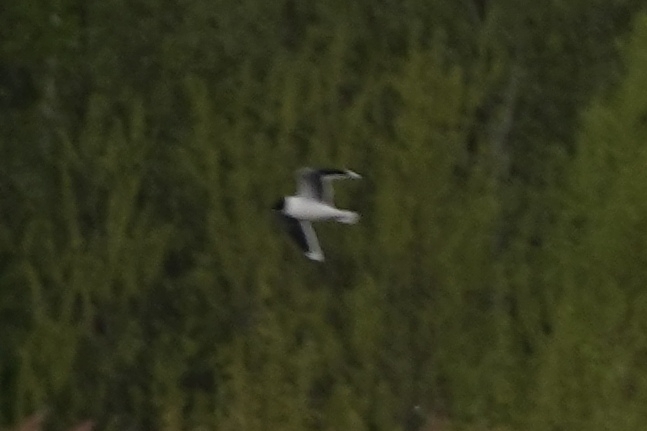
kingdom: Animalia
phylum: Chordata
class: Aves
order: Charadriiformes
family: Laridae
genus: Hydrocoloeus
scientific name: Hydrocoloeus minutus
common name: Little gull
